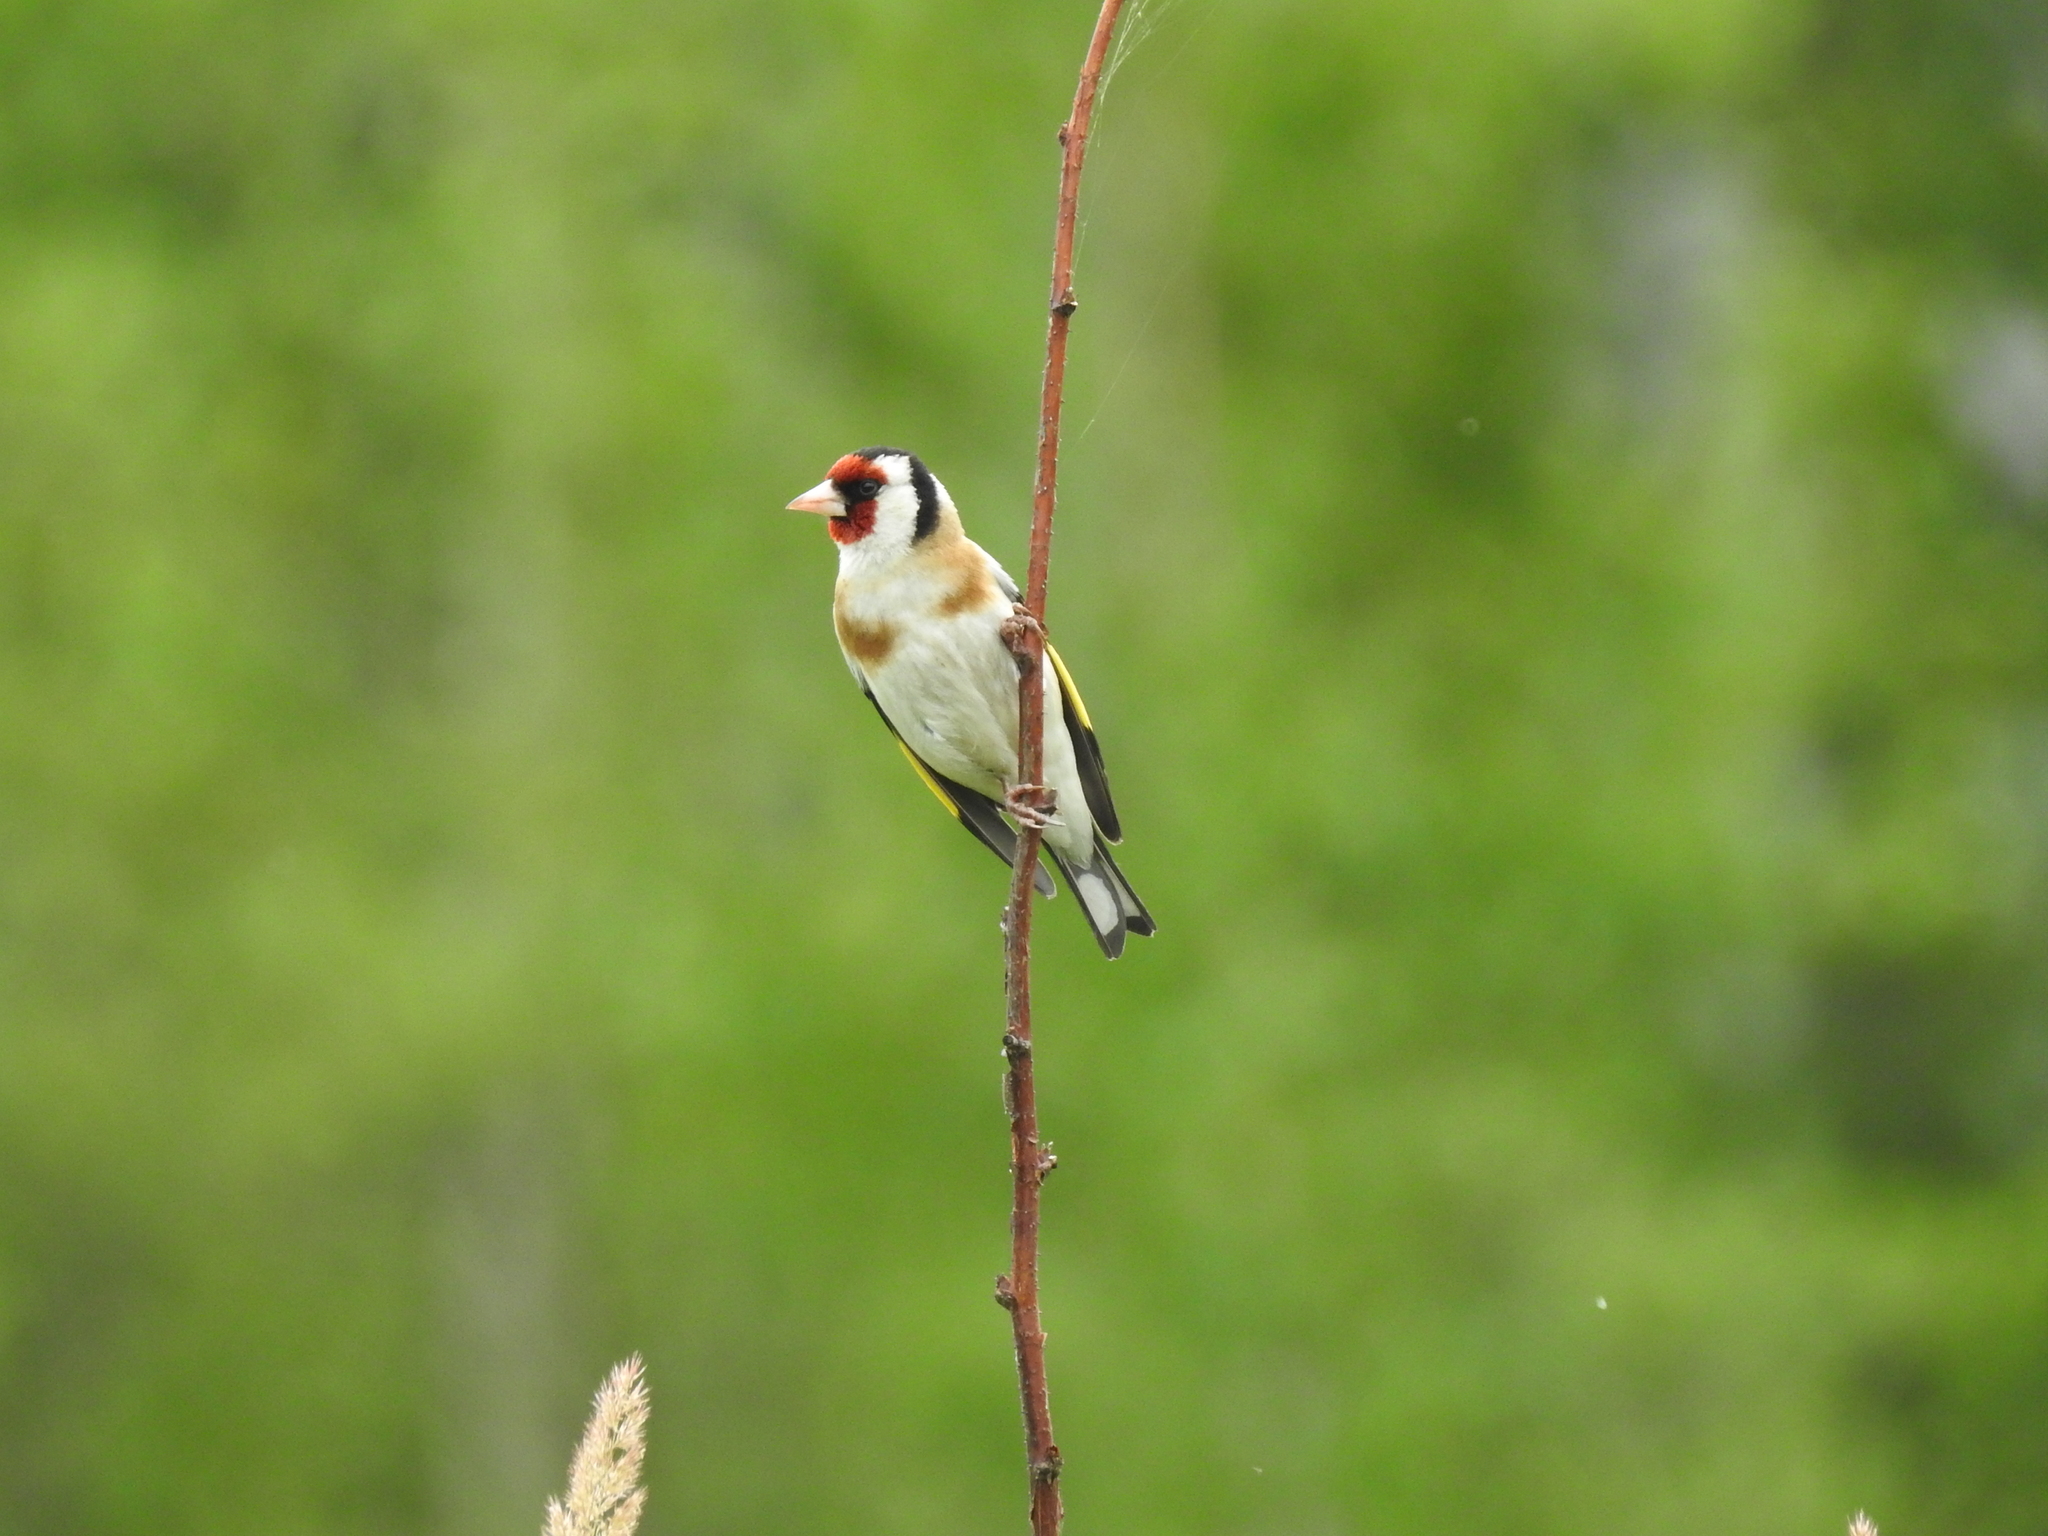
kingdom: Animalia
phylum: Chordata
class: Aves
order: Passeriformes
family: Fringillidae
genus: Carduelis
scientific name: Carduelis carduelis
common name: European goldfinch
